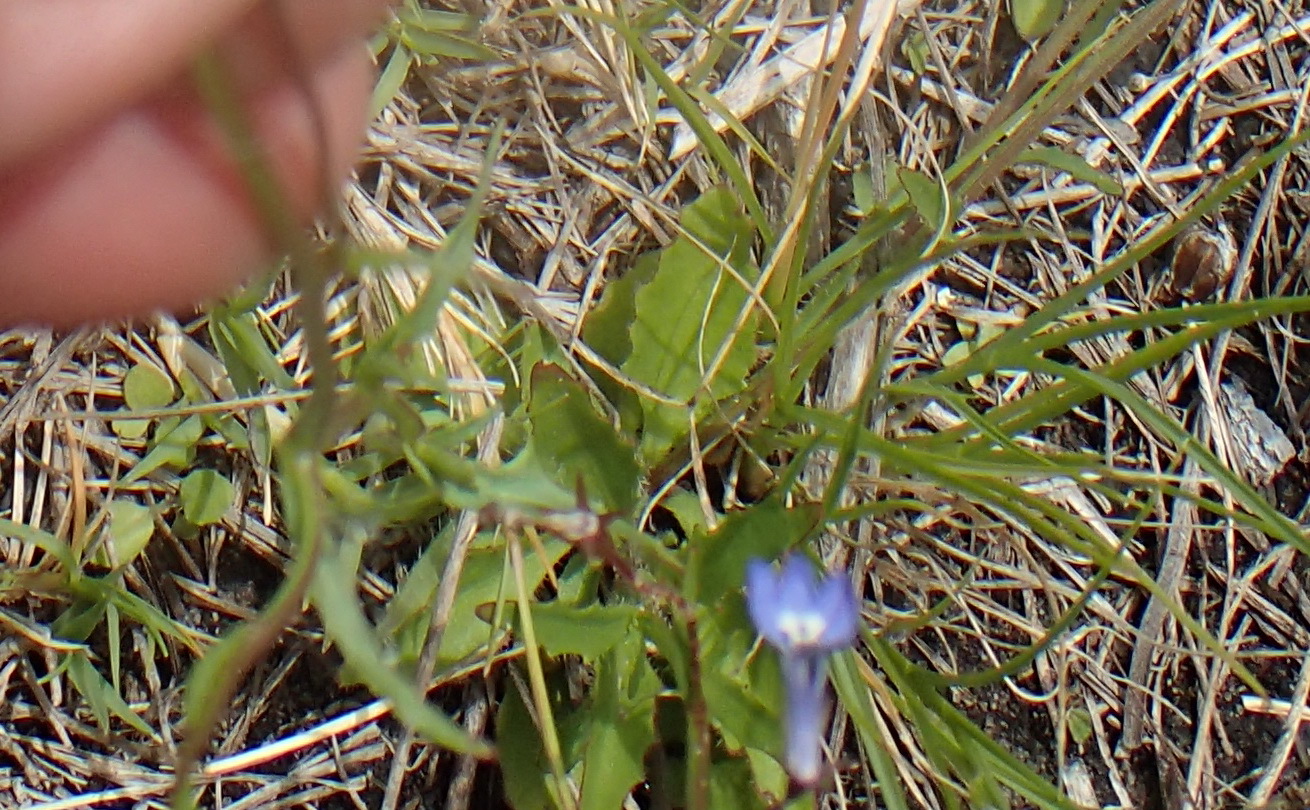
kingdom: Plantae
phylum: Tracheophyta
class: Magnoliopsida
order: Asterales
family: Campanulaceae
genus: Lobelia
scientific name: Lobelia erinus
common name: Edging lobelia
